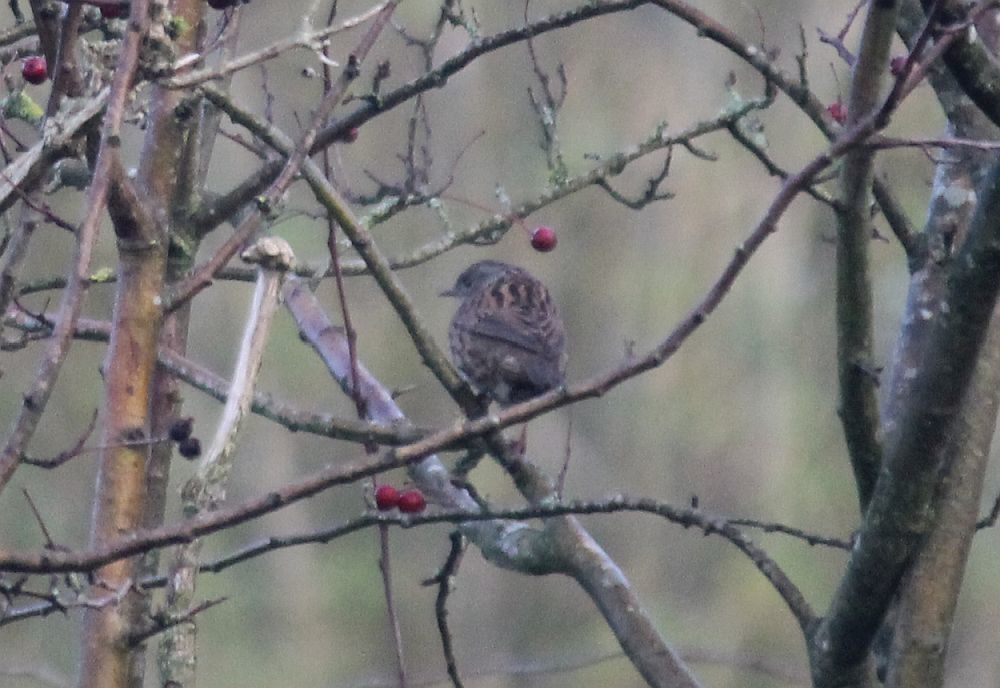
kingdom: Animalia
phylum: Chordata
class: Aves
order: Passeriformes
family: Prunellidae
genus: Prunella
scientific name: Prunella modularis
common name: Dunnock
